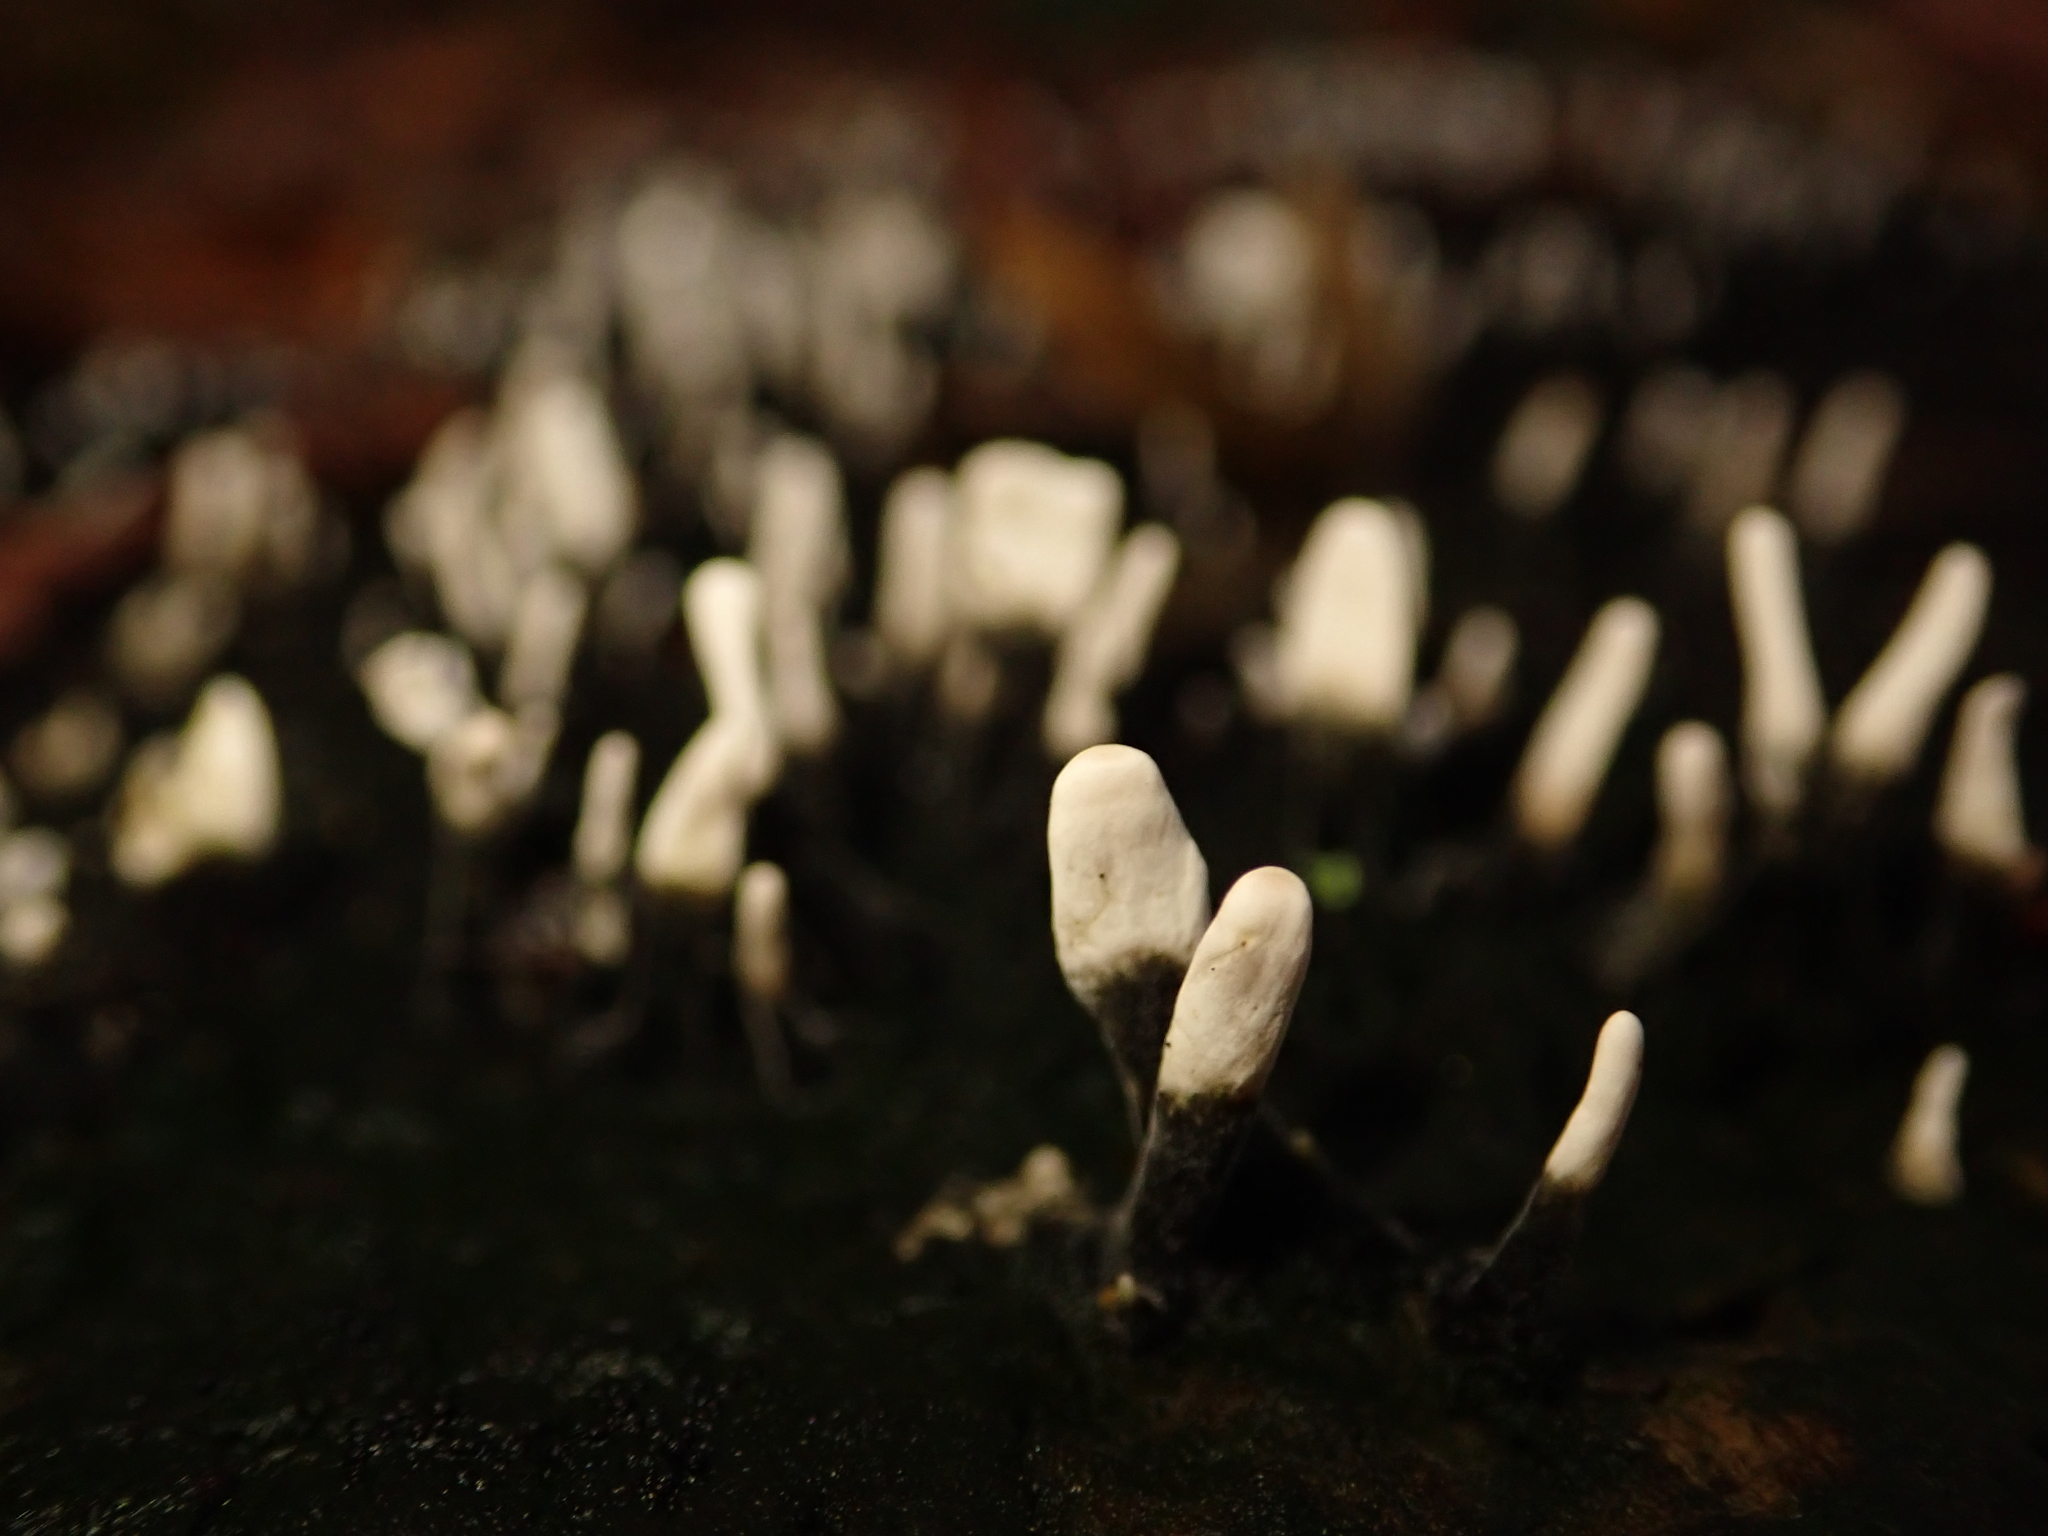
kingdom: Fungi
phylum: Ascomycota
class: Sordariomycetes
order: Xylariales
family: Xylariaceae
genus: Xylaria
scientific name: Xylaria hypoxylon
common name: Candle-snuff fungus
